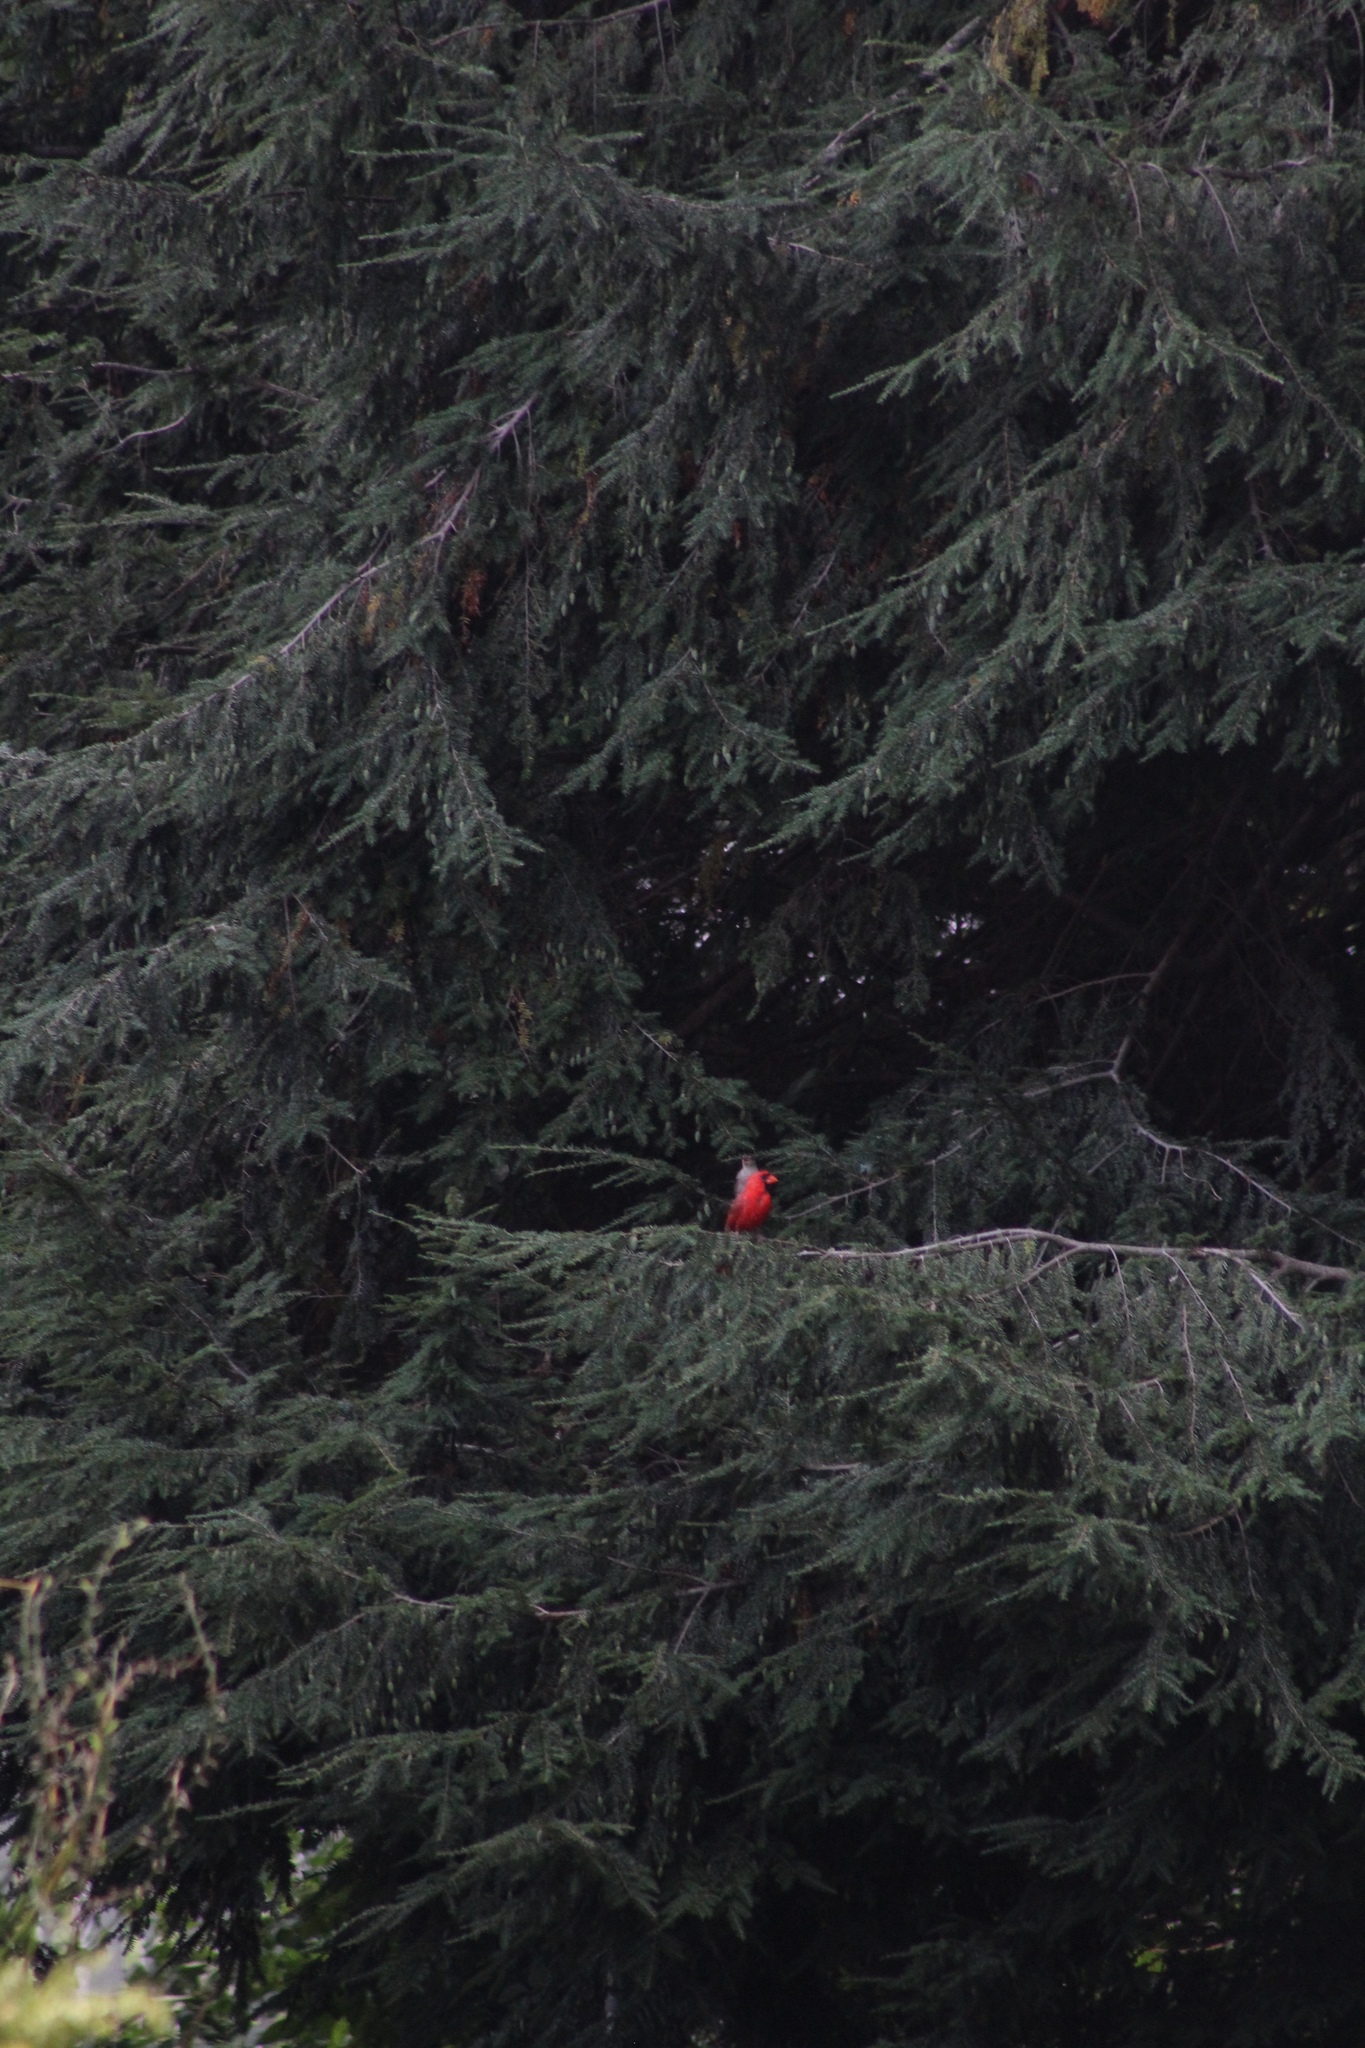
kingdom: Animalia
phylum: Chordata
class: Aves
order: Passeriformes
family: Cardinalidae
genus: Cardinalis
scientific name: Cardinalis cardinalis
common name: Northern cardinal
